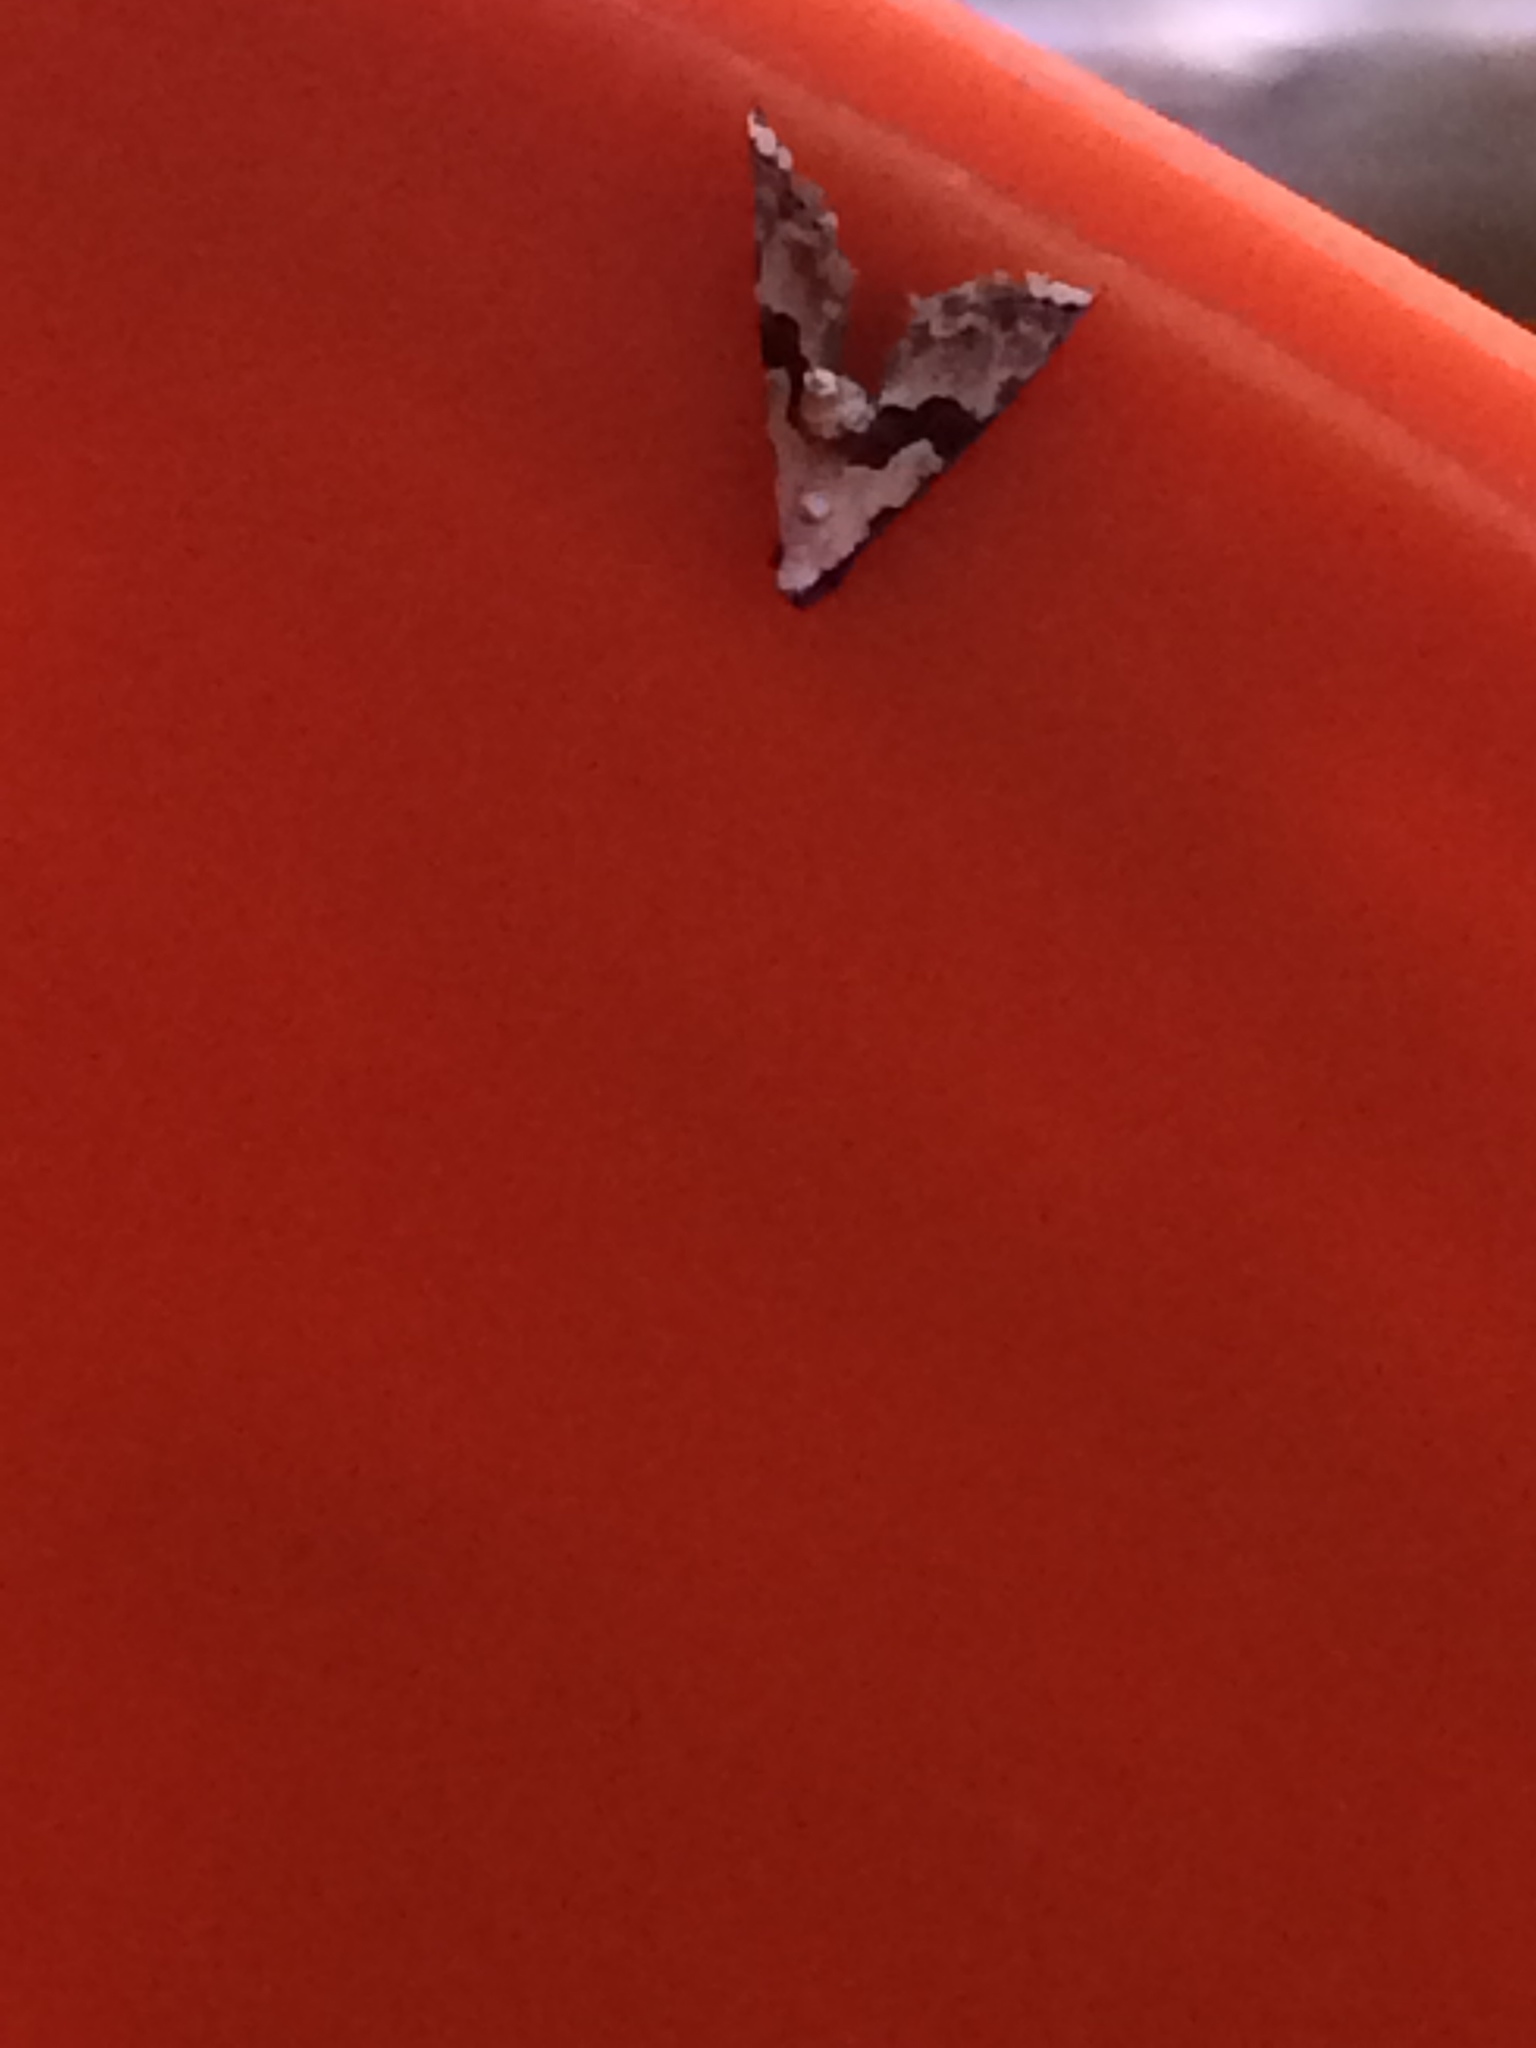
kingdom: Animalia
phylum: Arthropoda
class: Insecta
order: Lepidoptera
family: Noctuidae
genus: Nigetia
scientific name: Nigetia formosalis
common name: Thin-winged owlet
